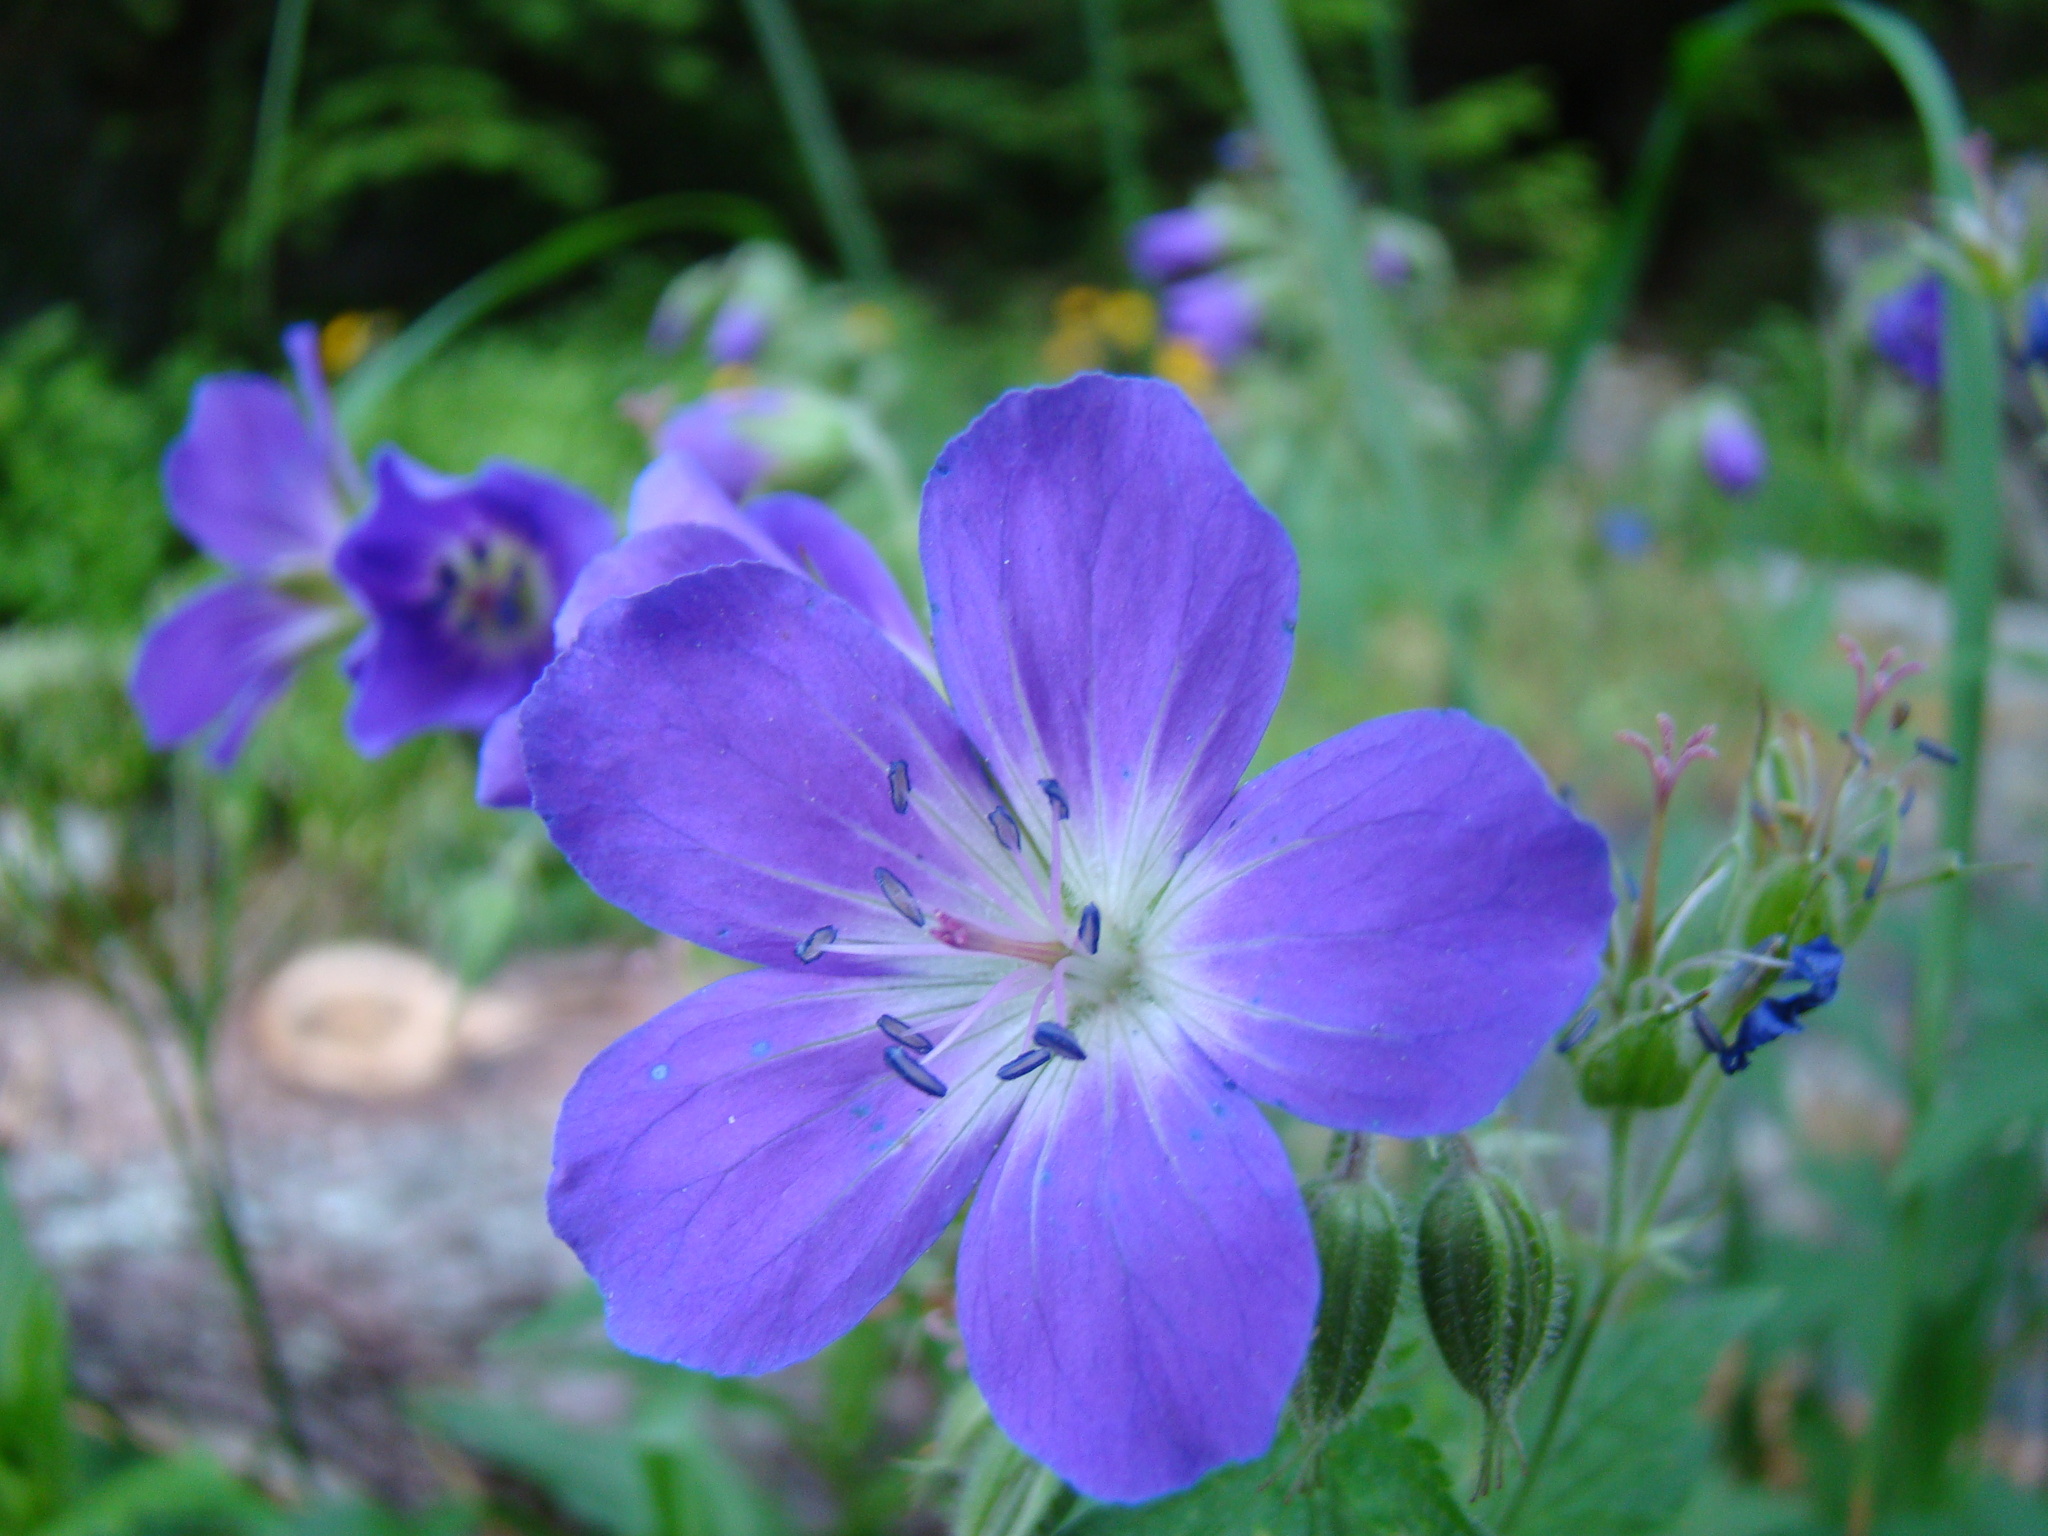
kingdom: Plantae
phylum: Tracheophyta
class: Magnoliopsida
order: Geraniales
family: Geraniaceae
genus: Geranium
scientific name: Geranium sylvaticum
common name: Wood crane's-bill
